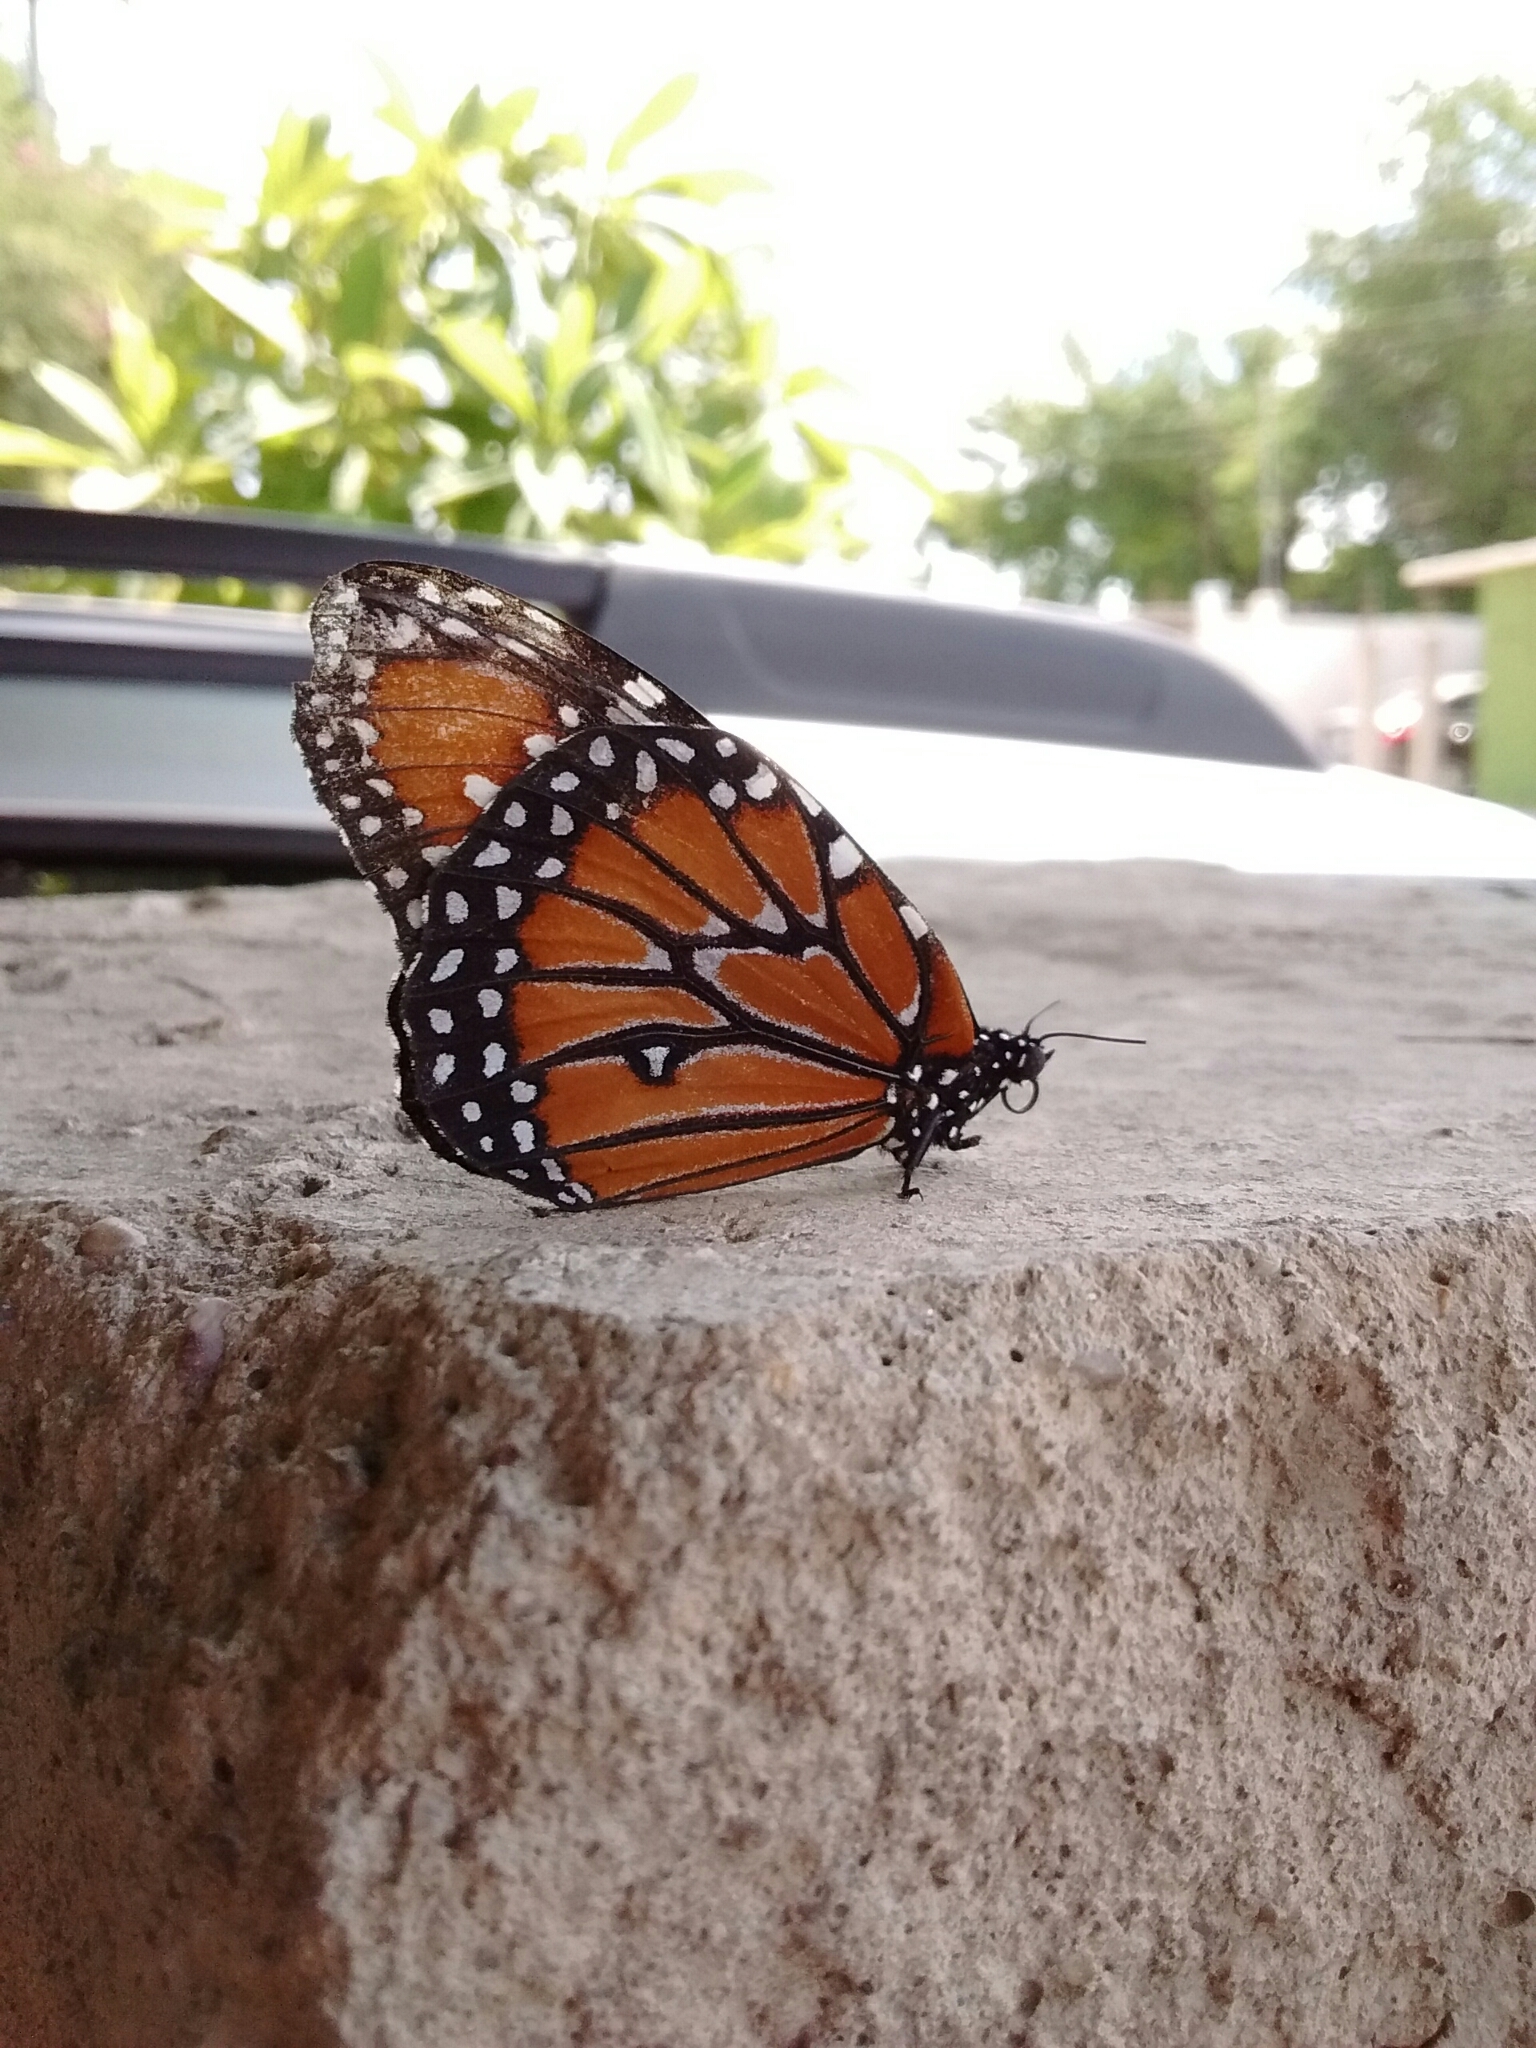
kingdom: Animalia
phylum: Arthropoda
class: Insecta
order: Lepidoptera
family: Nymphalidae
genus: Danaus
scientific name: Danaus gilippus
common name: Queen
